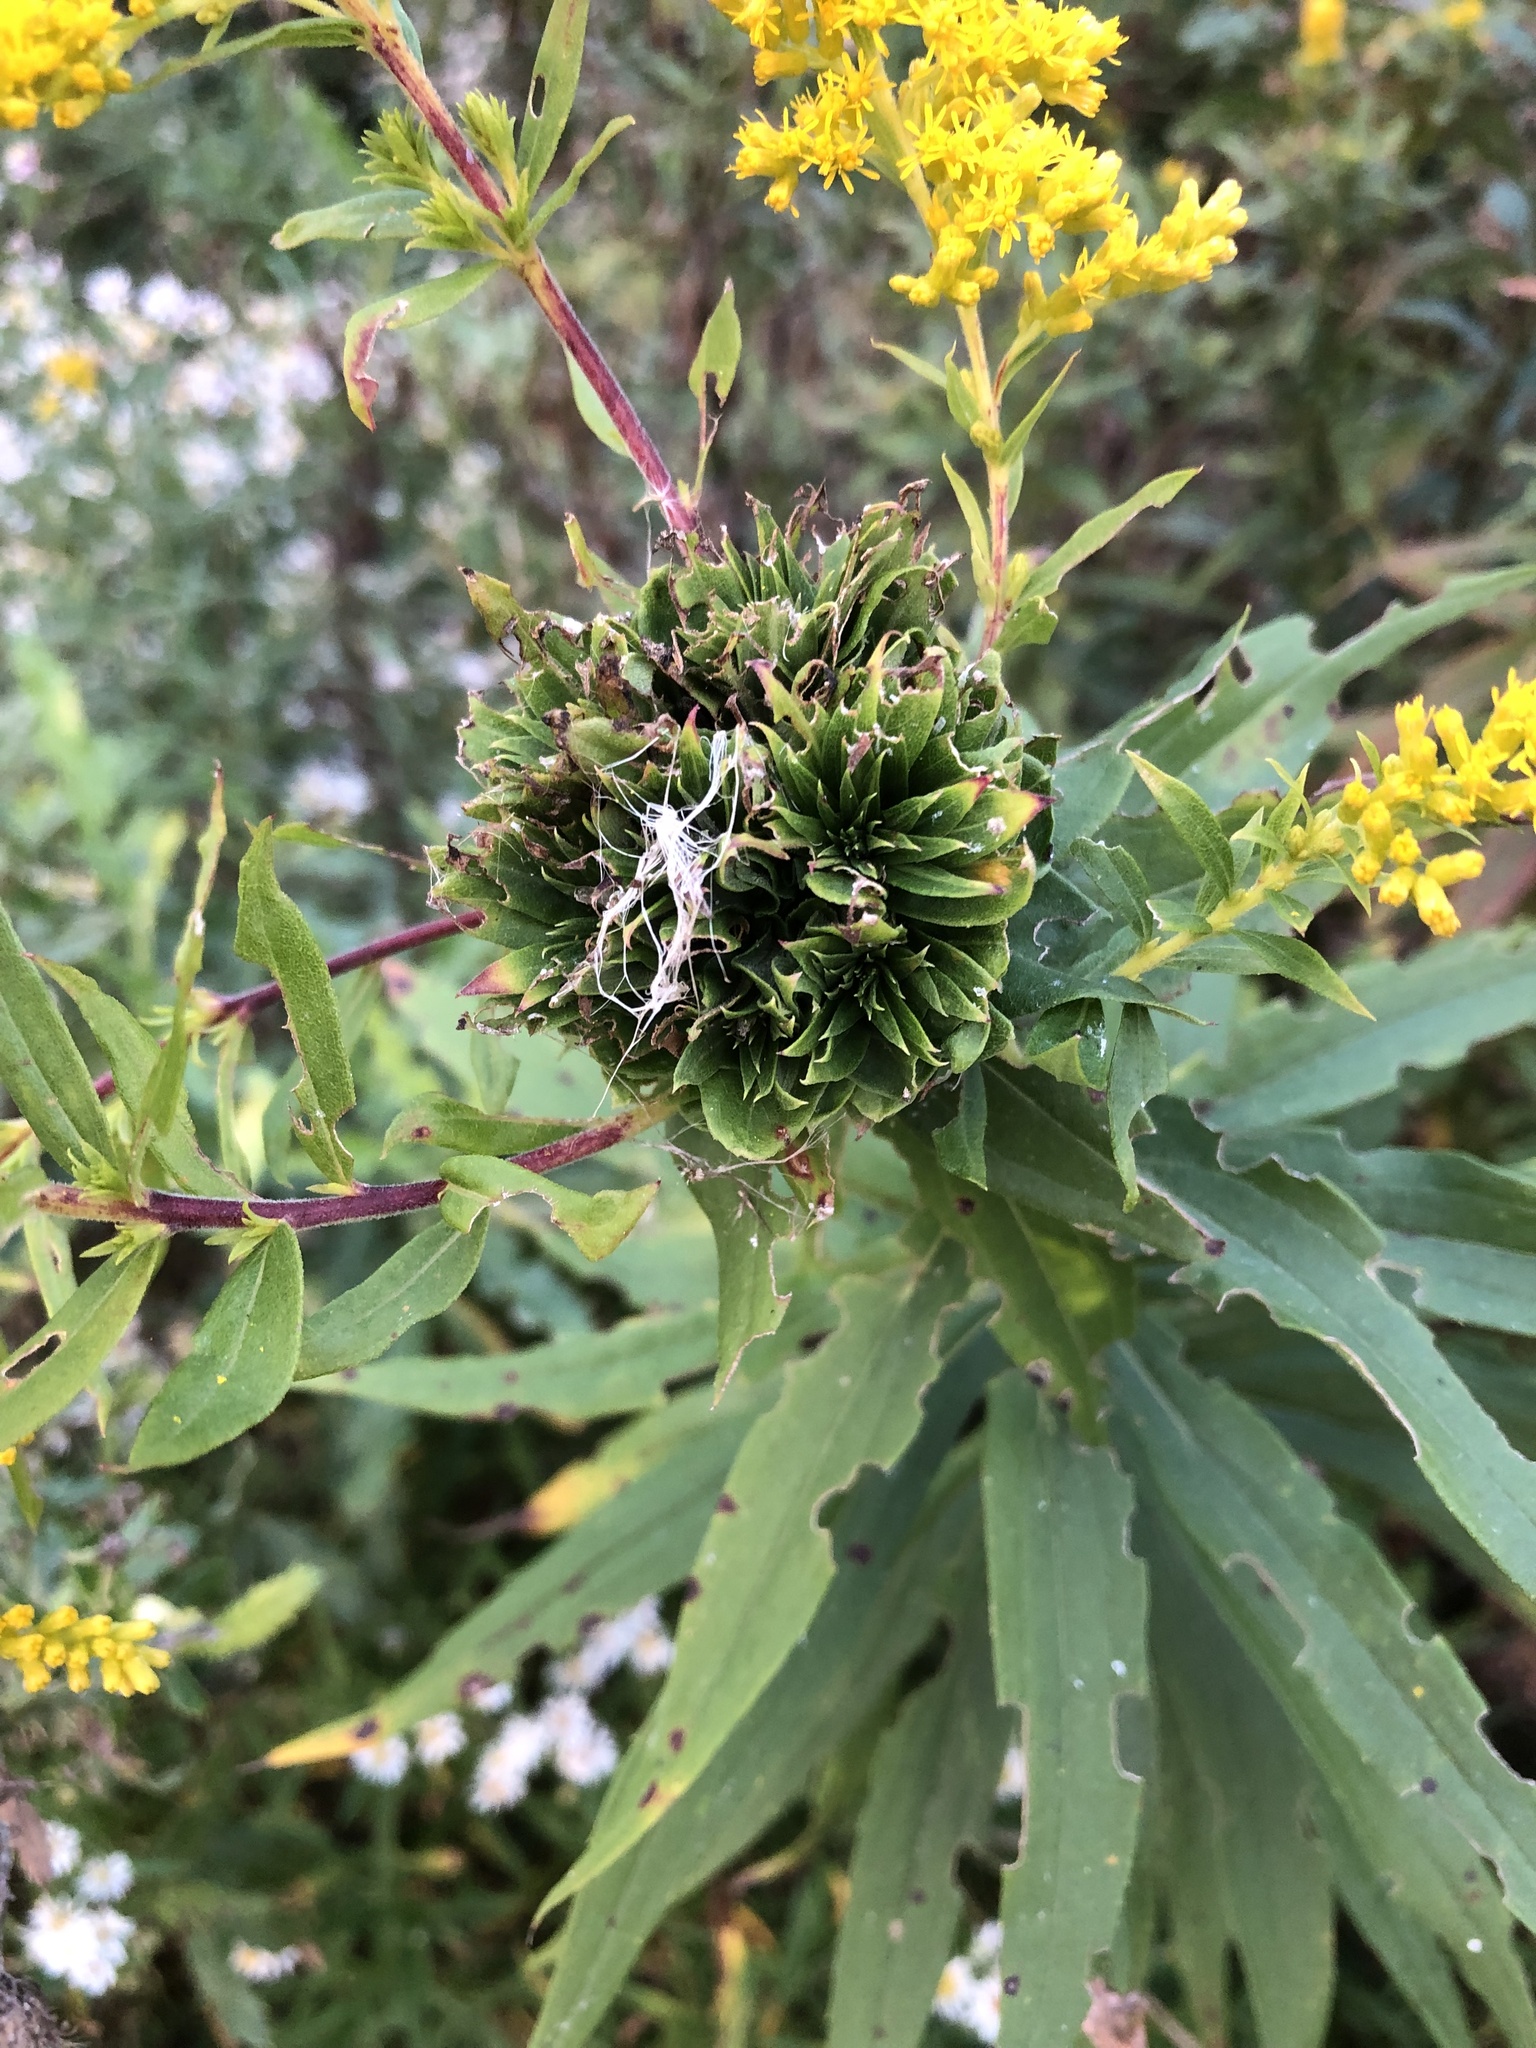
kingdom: Animalia
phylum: Arthropoda
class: Insecta
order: Diptera
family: Cecidomyiidae
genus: Rhopalomyia
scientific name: Rhopalomyia solidaginis
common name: Goldenrod bunch gall midge
